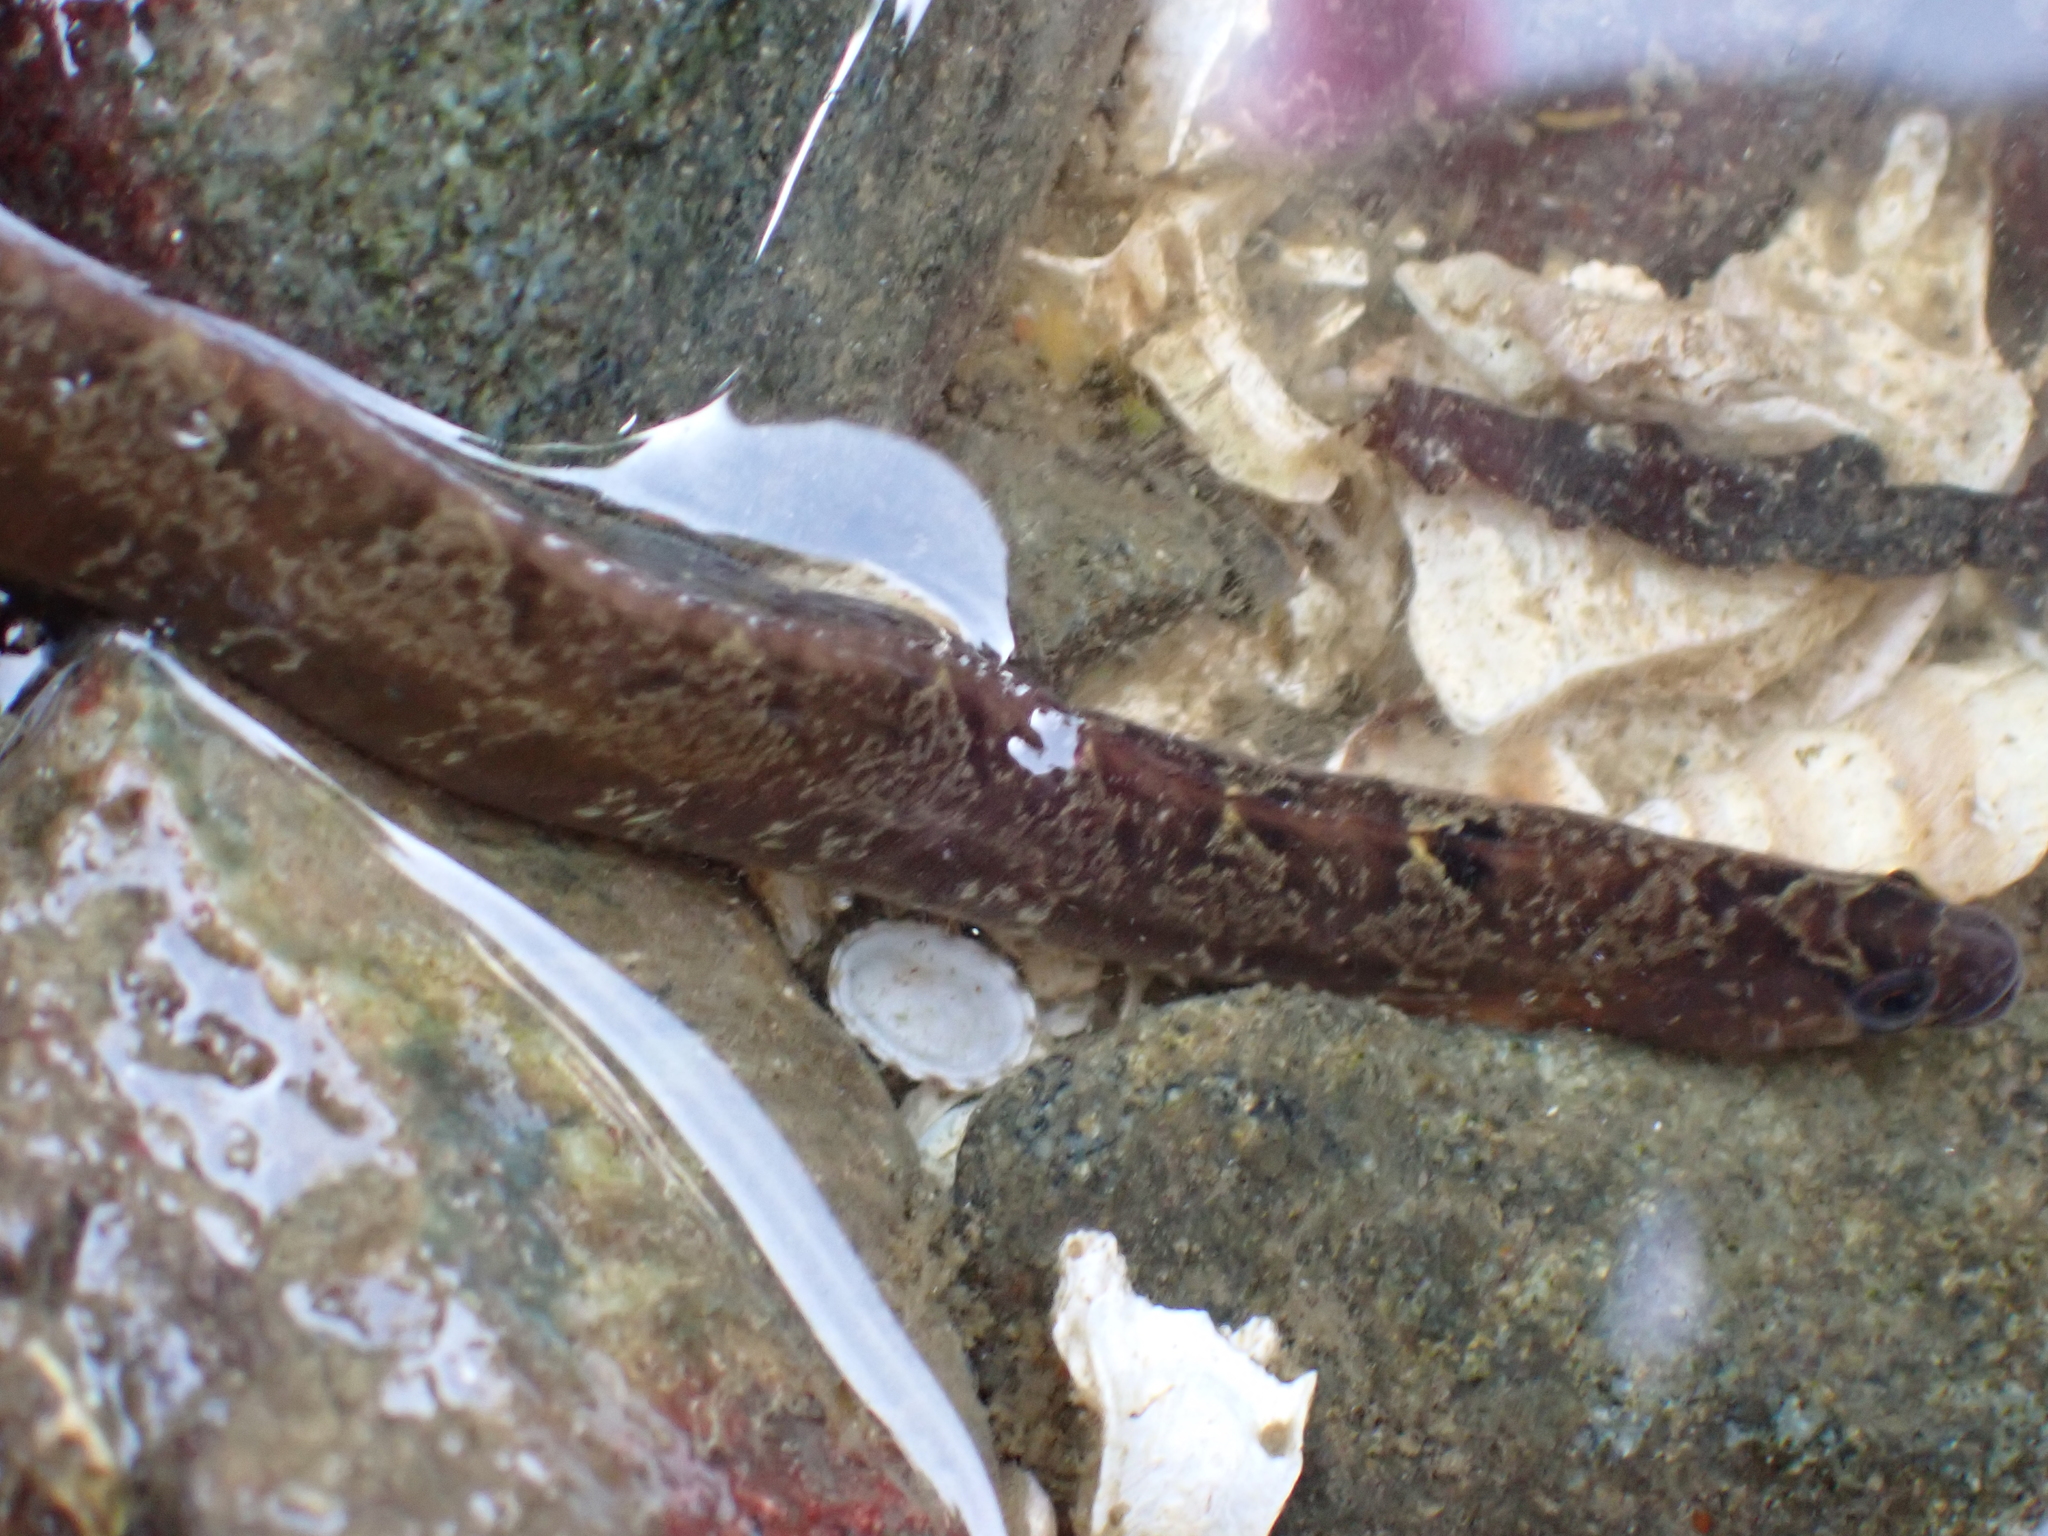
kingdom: Animalia
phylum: Chordata
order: Perciformes
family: Pholidae
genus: Pholis
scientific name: Pholis ornata
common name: Saddleback gunnel
